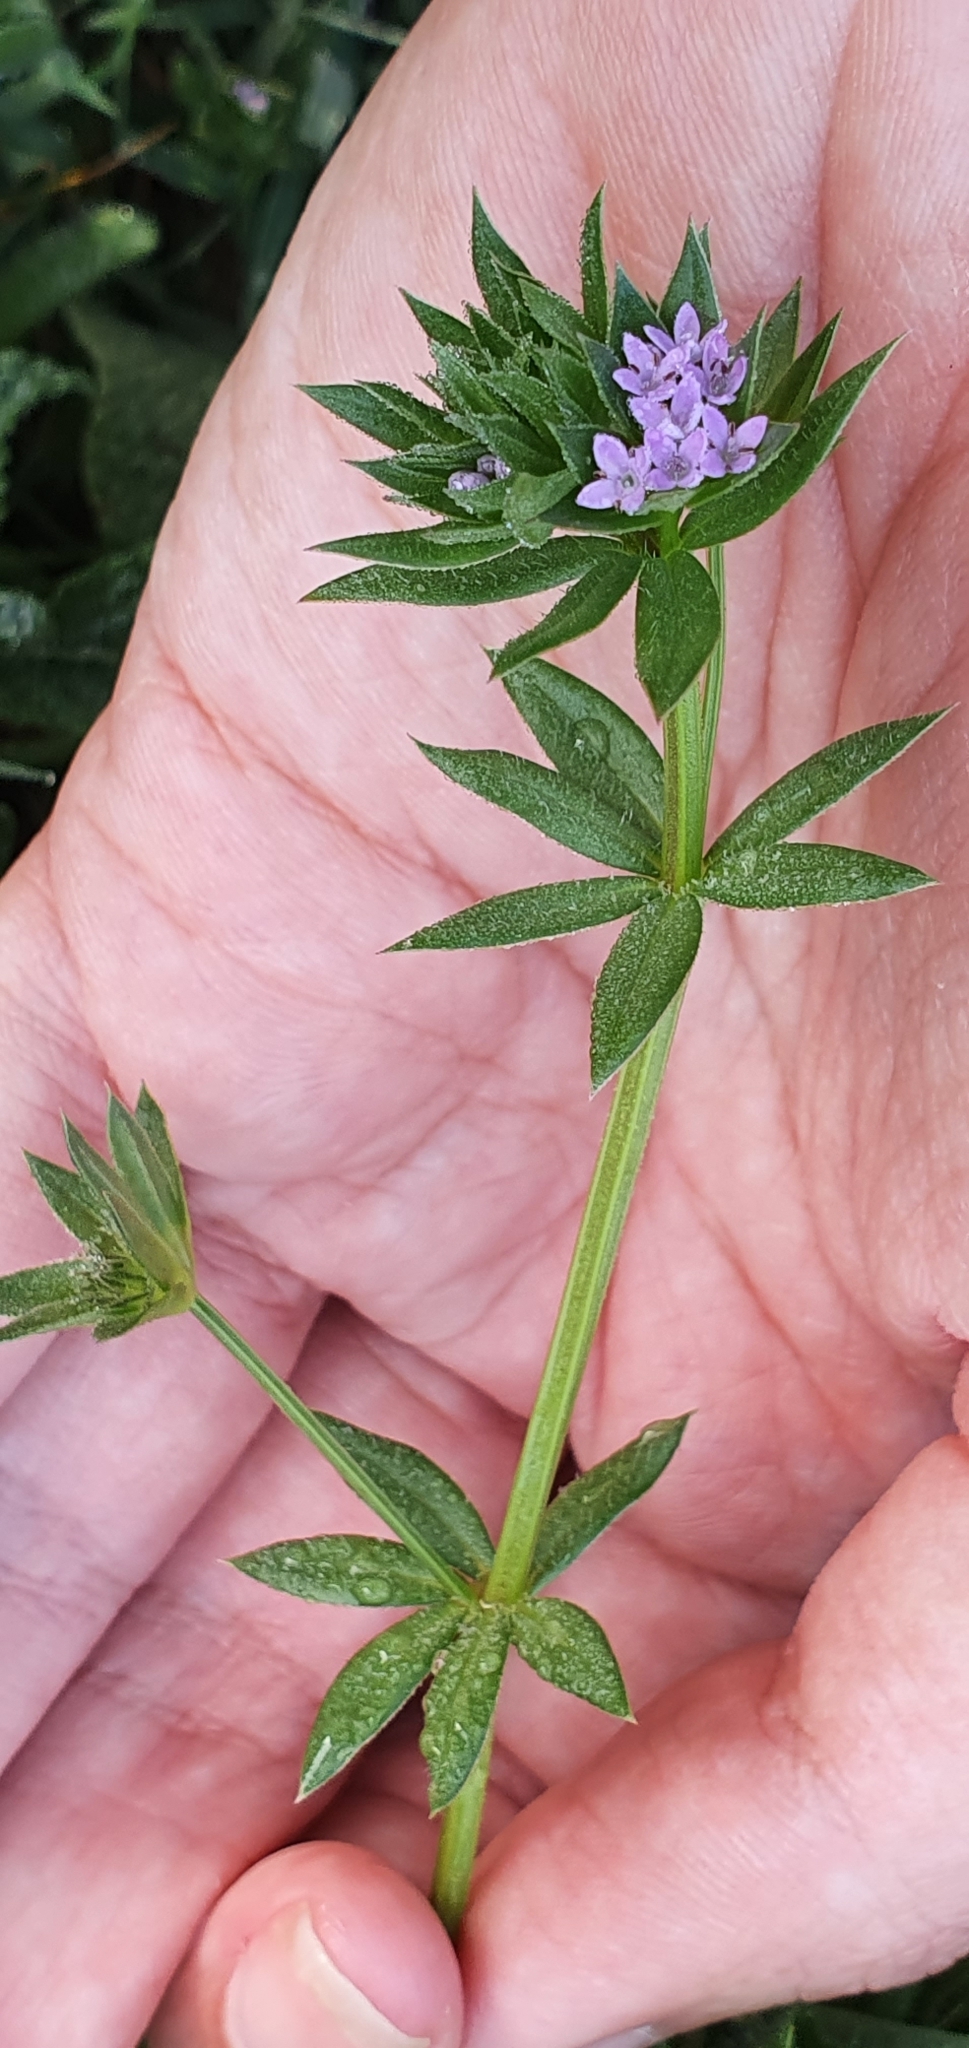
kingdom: Plantae
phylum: Tracheophyta
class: Magnoliopsida
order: Gentianales
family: Rubiaceae
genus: Sherardia
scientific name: Sherardia arvensis
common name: Field madder
